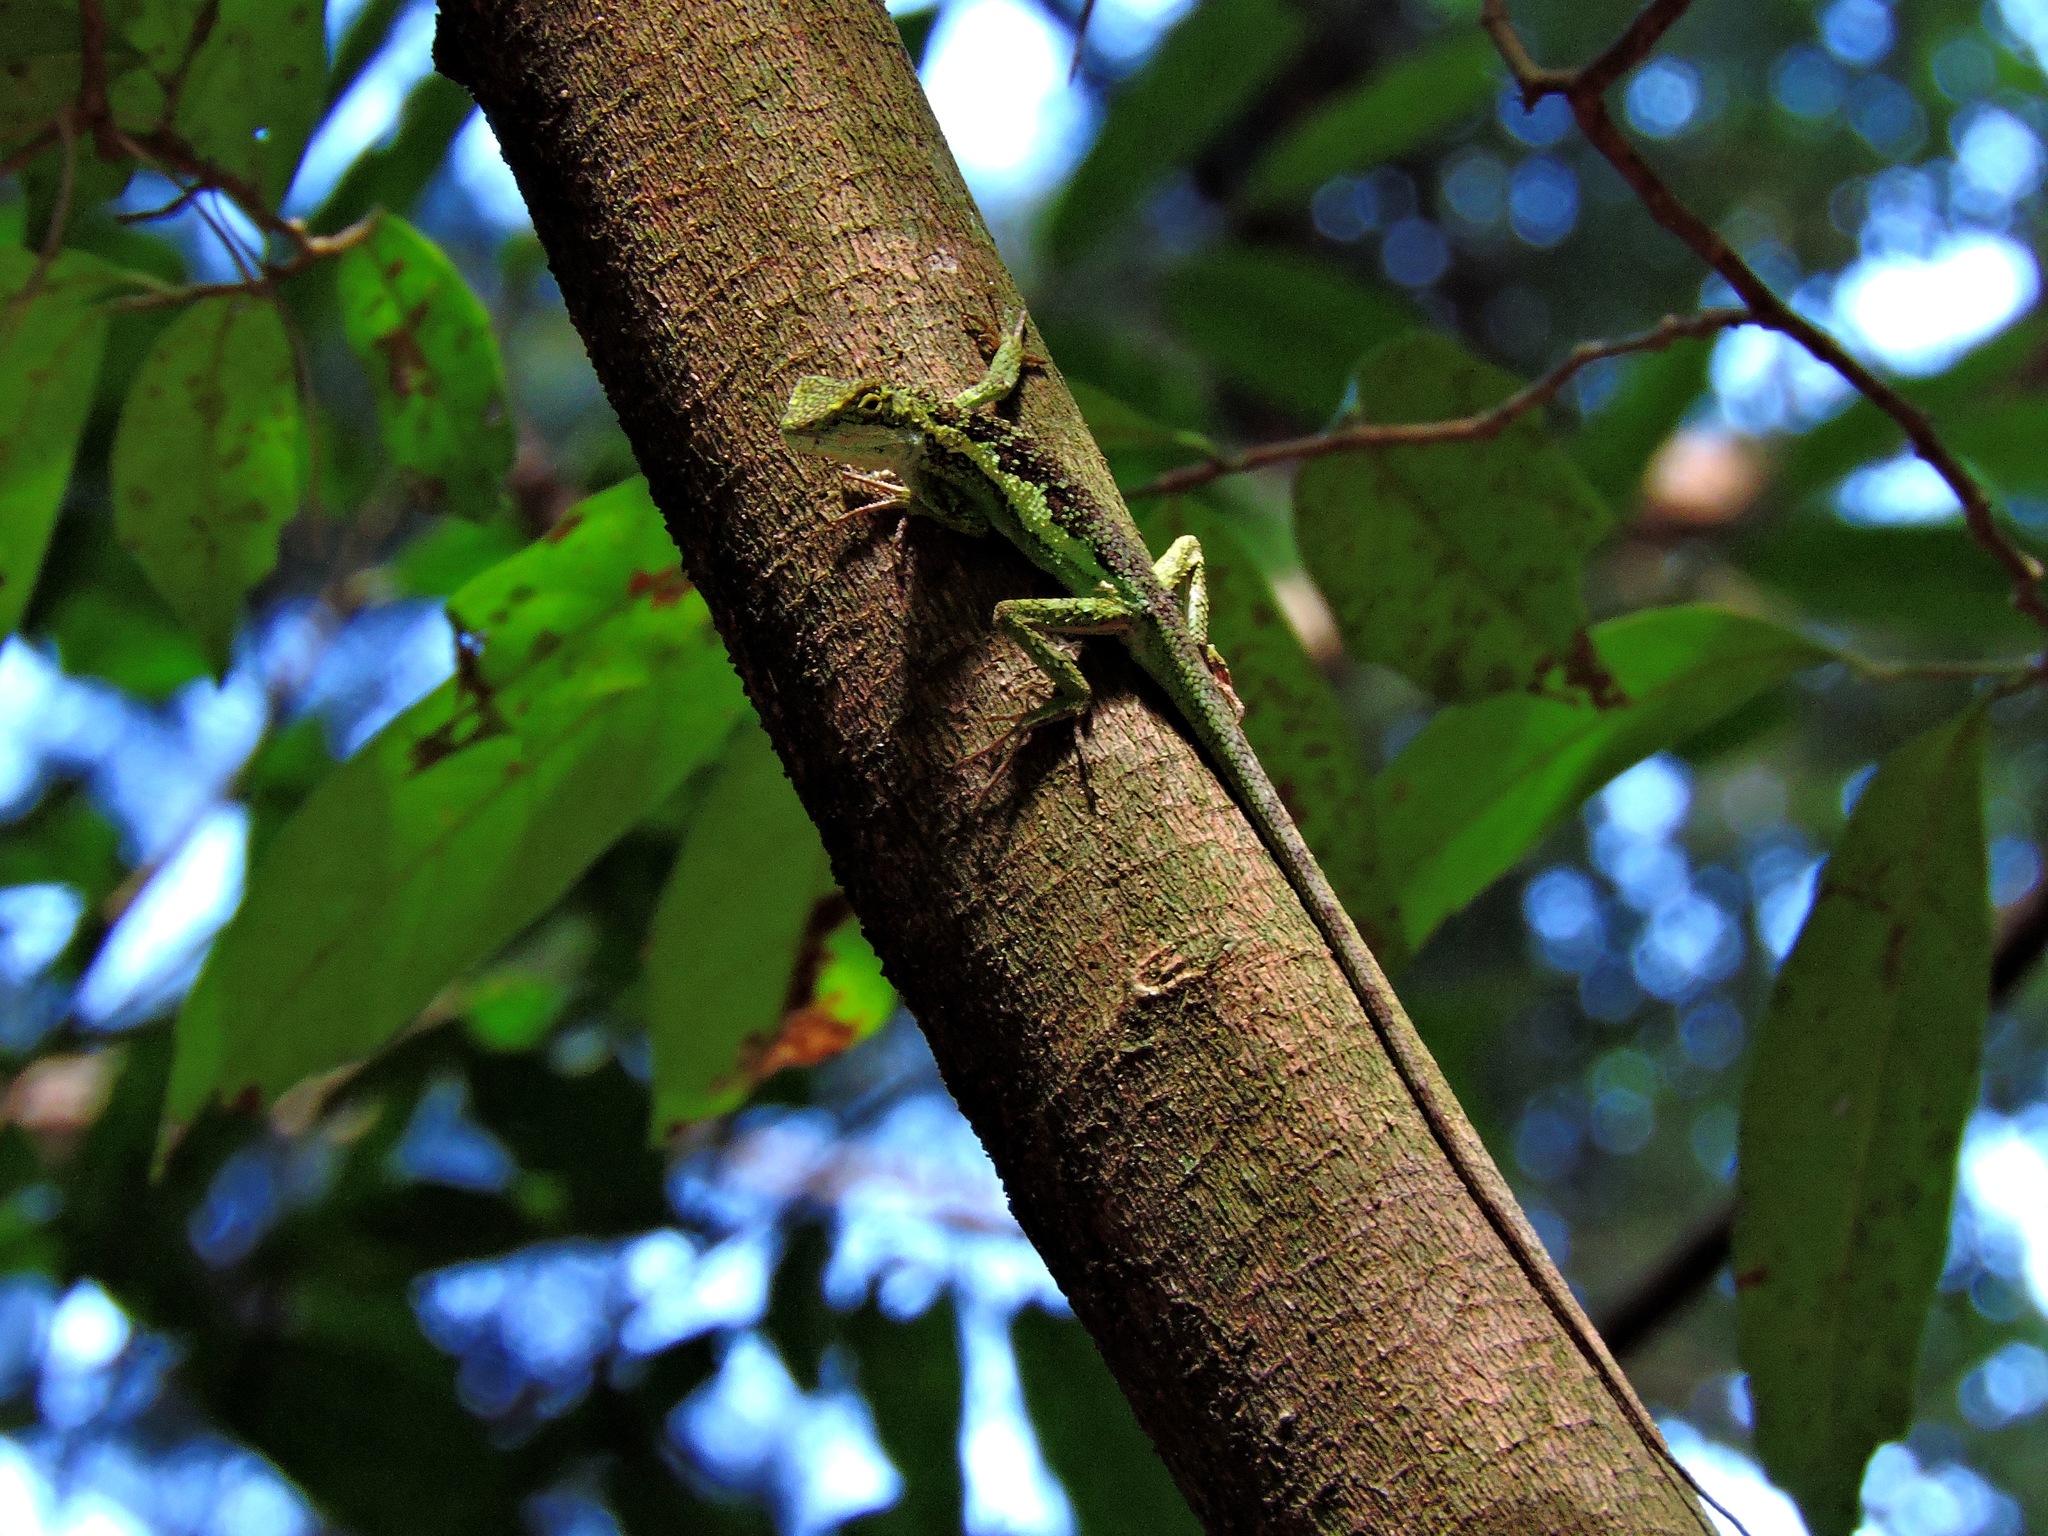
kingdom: Animalia
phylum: Chordata
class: Squamata
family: Agamidae
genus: Diploderma
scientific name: Diploderma brevipes
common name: Short-legged japalure
